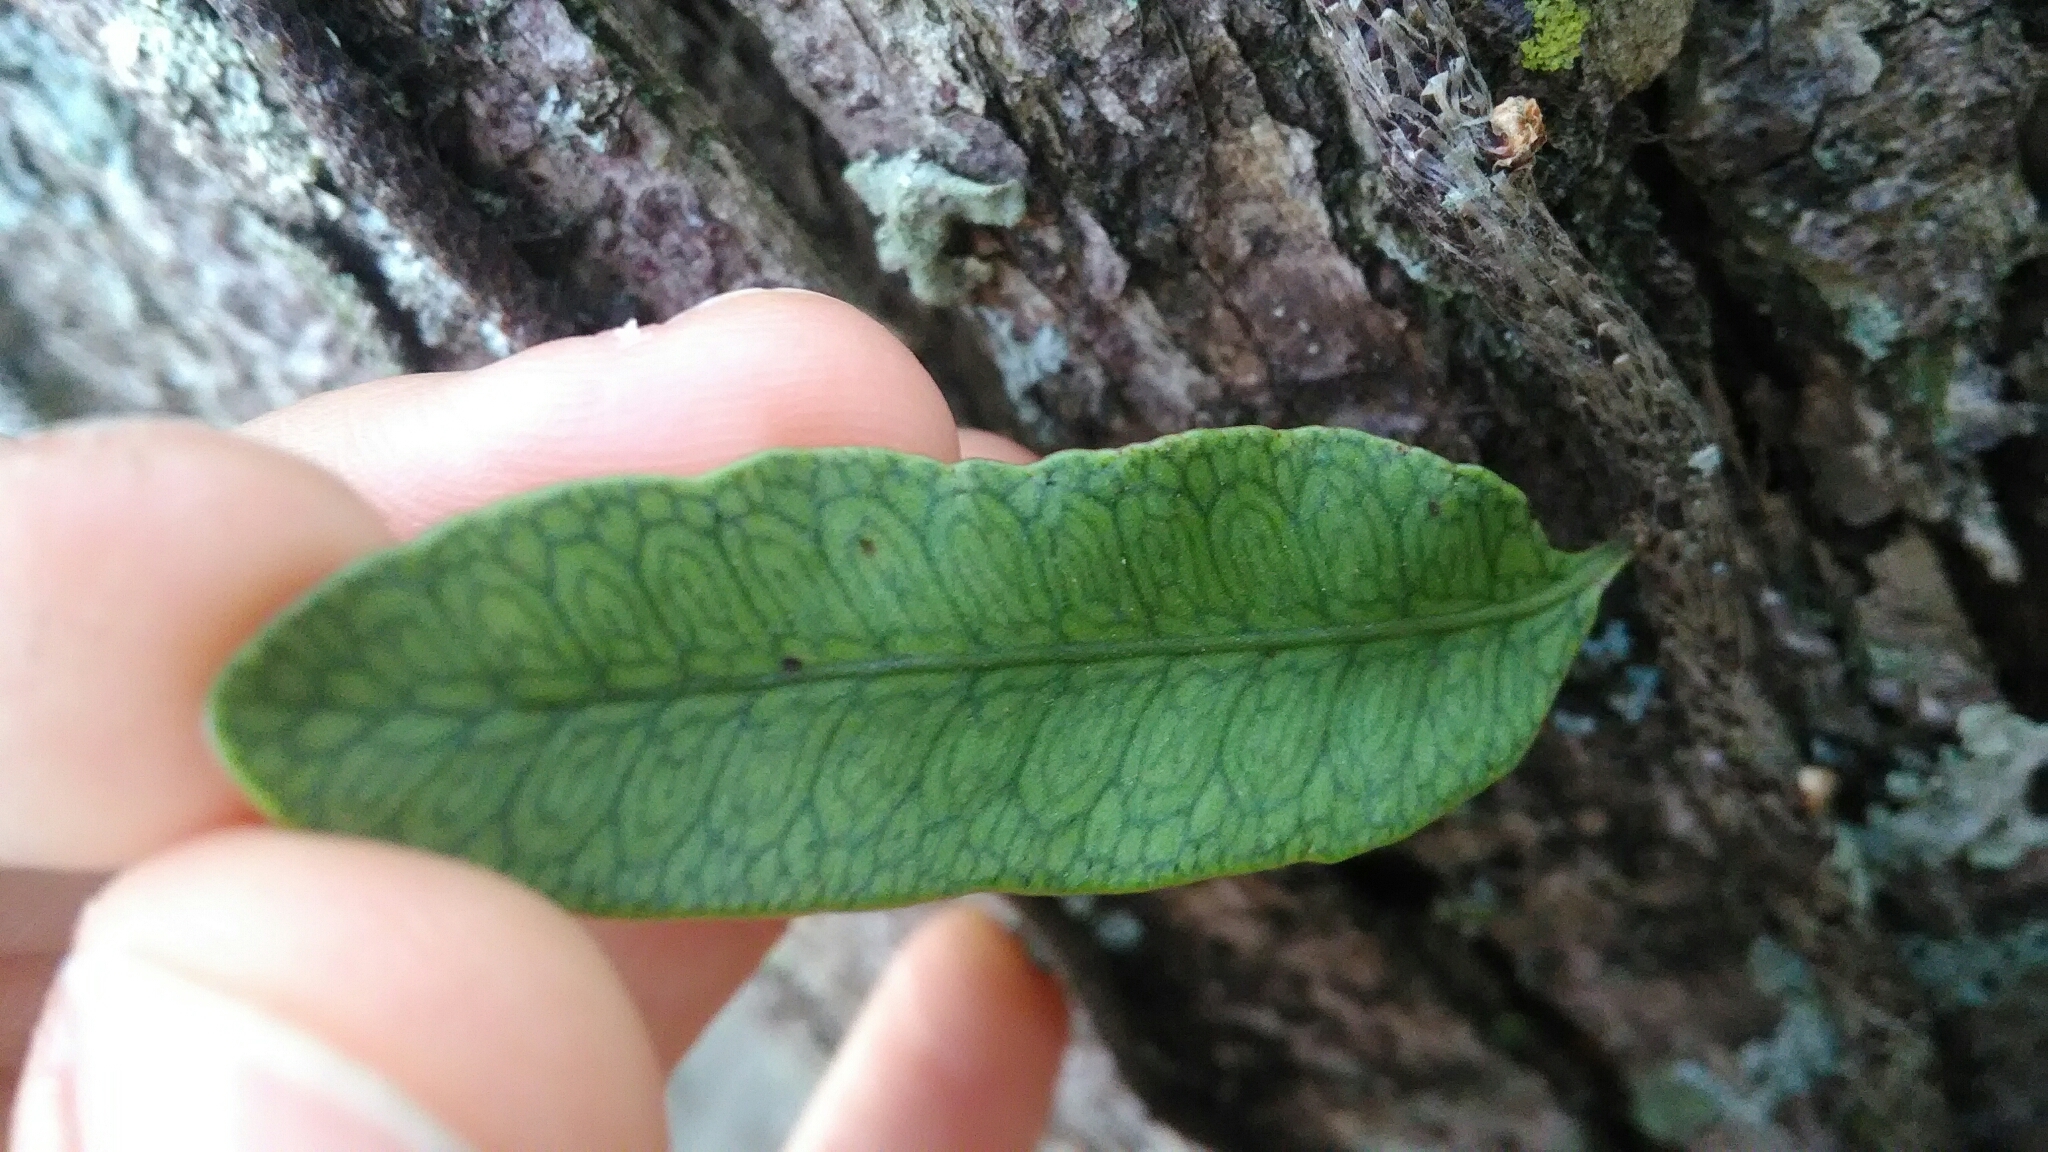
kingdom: Plantae
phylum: Tracheophyta
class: Polypodiopsida
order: Polypodiales
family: Polypodiaceae
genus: Microgramma
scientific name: Microgramma squamulosa
